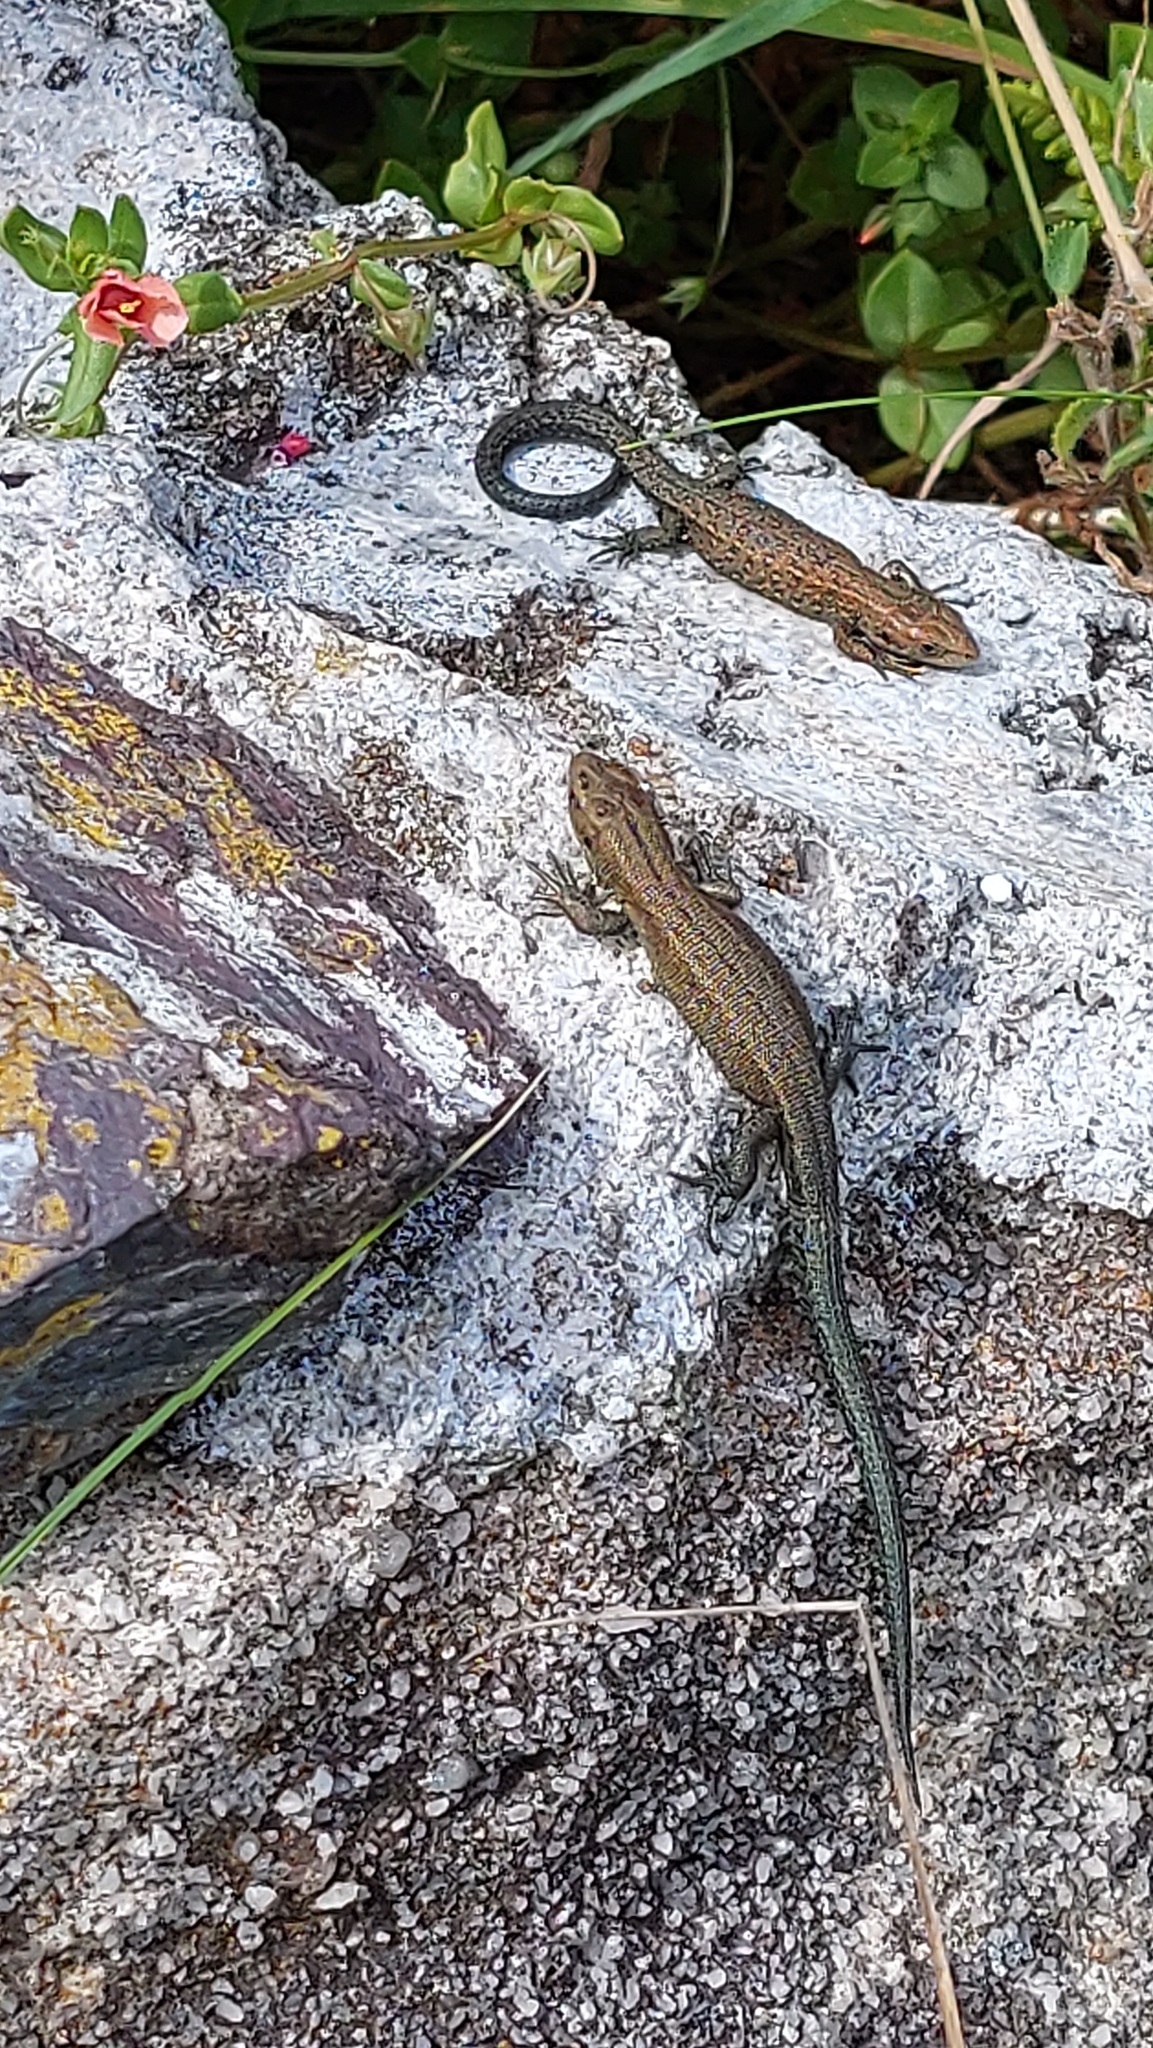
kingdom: Animalia
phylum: Chordata
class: Squamata
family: Lacertidae
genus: Zootoca
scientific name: Zootoca vivipara
